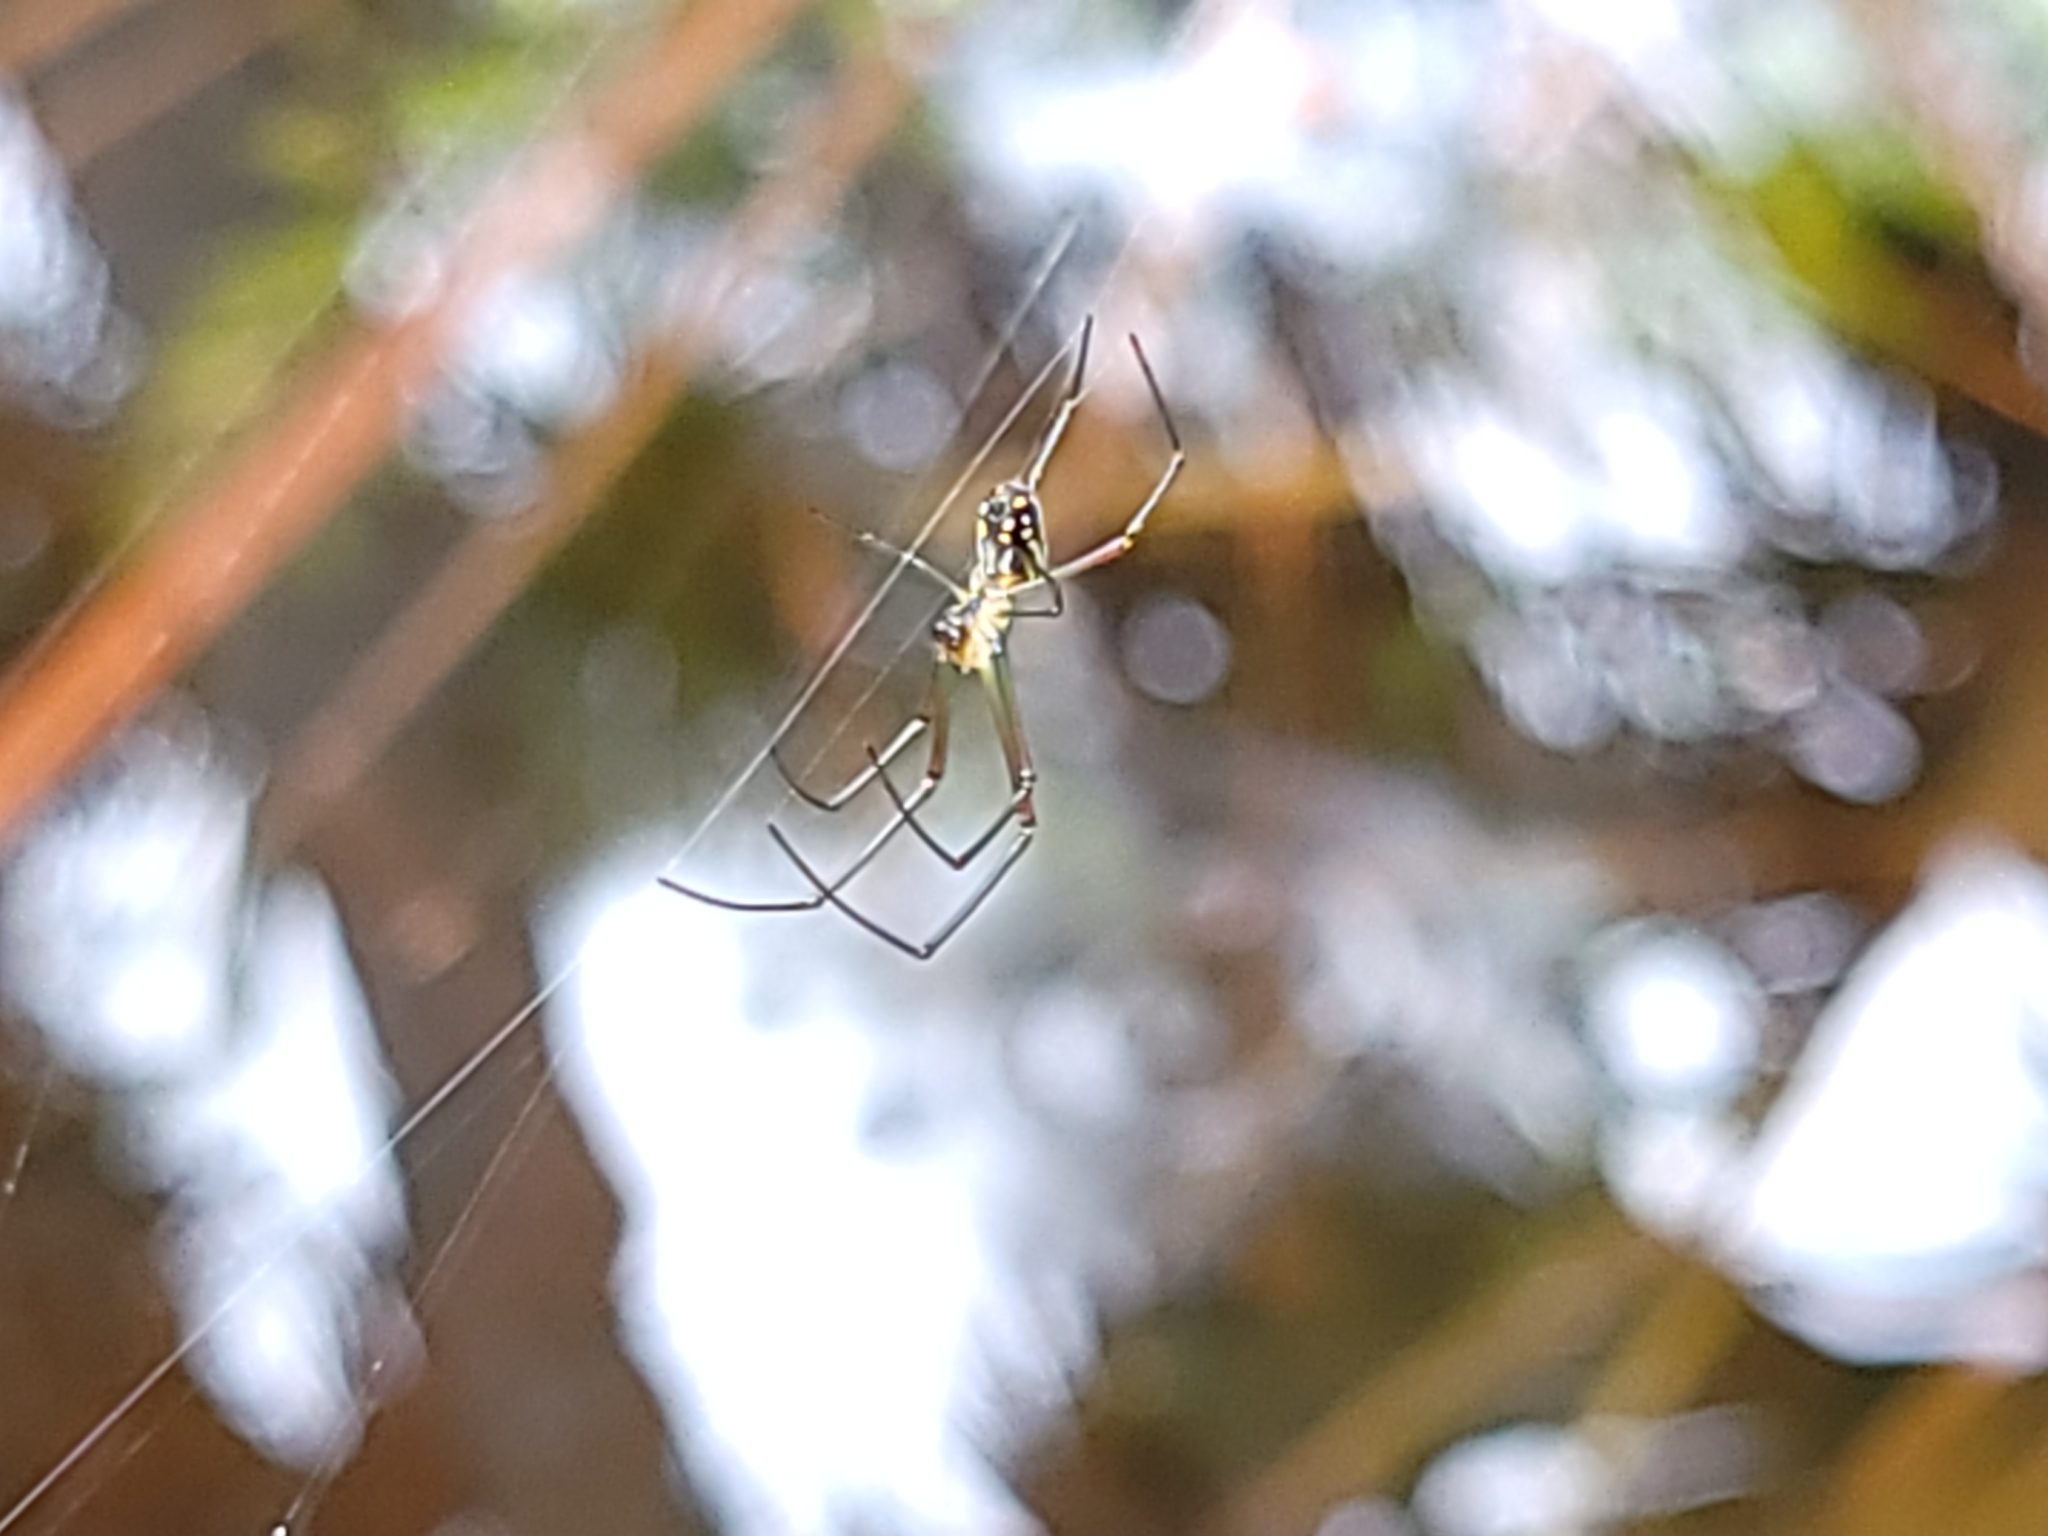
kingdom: Animalia
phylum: Arthropoda
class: Arachnida
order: Araneae
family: Tetragnathidae
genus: Leucauge
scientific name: Leucauge argyra
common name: Longjawed orb weavers
